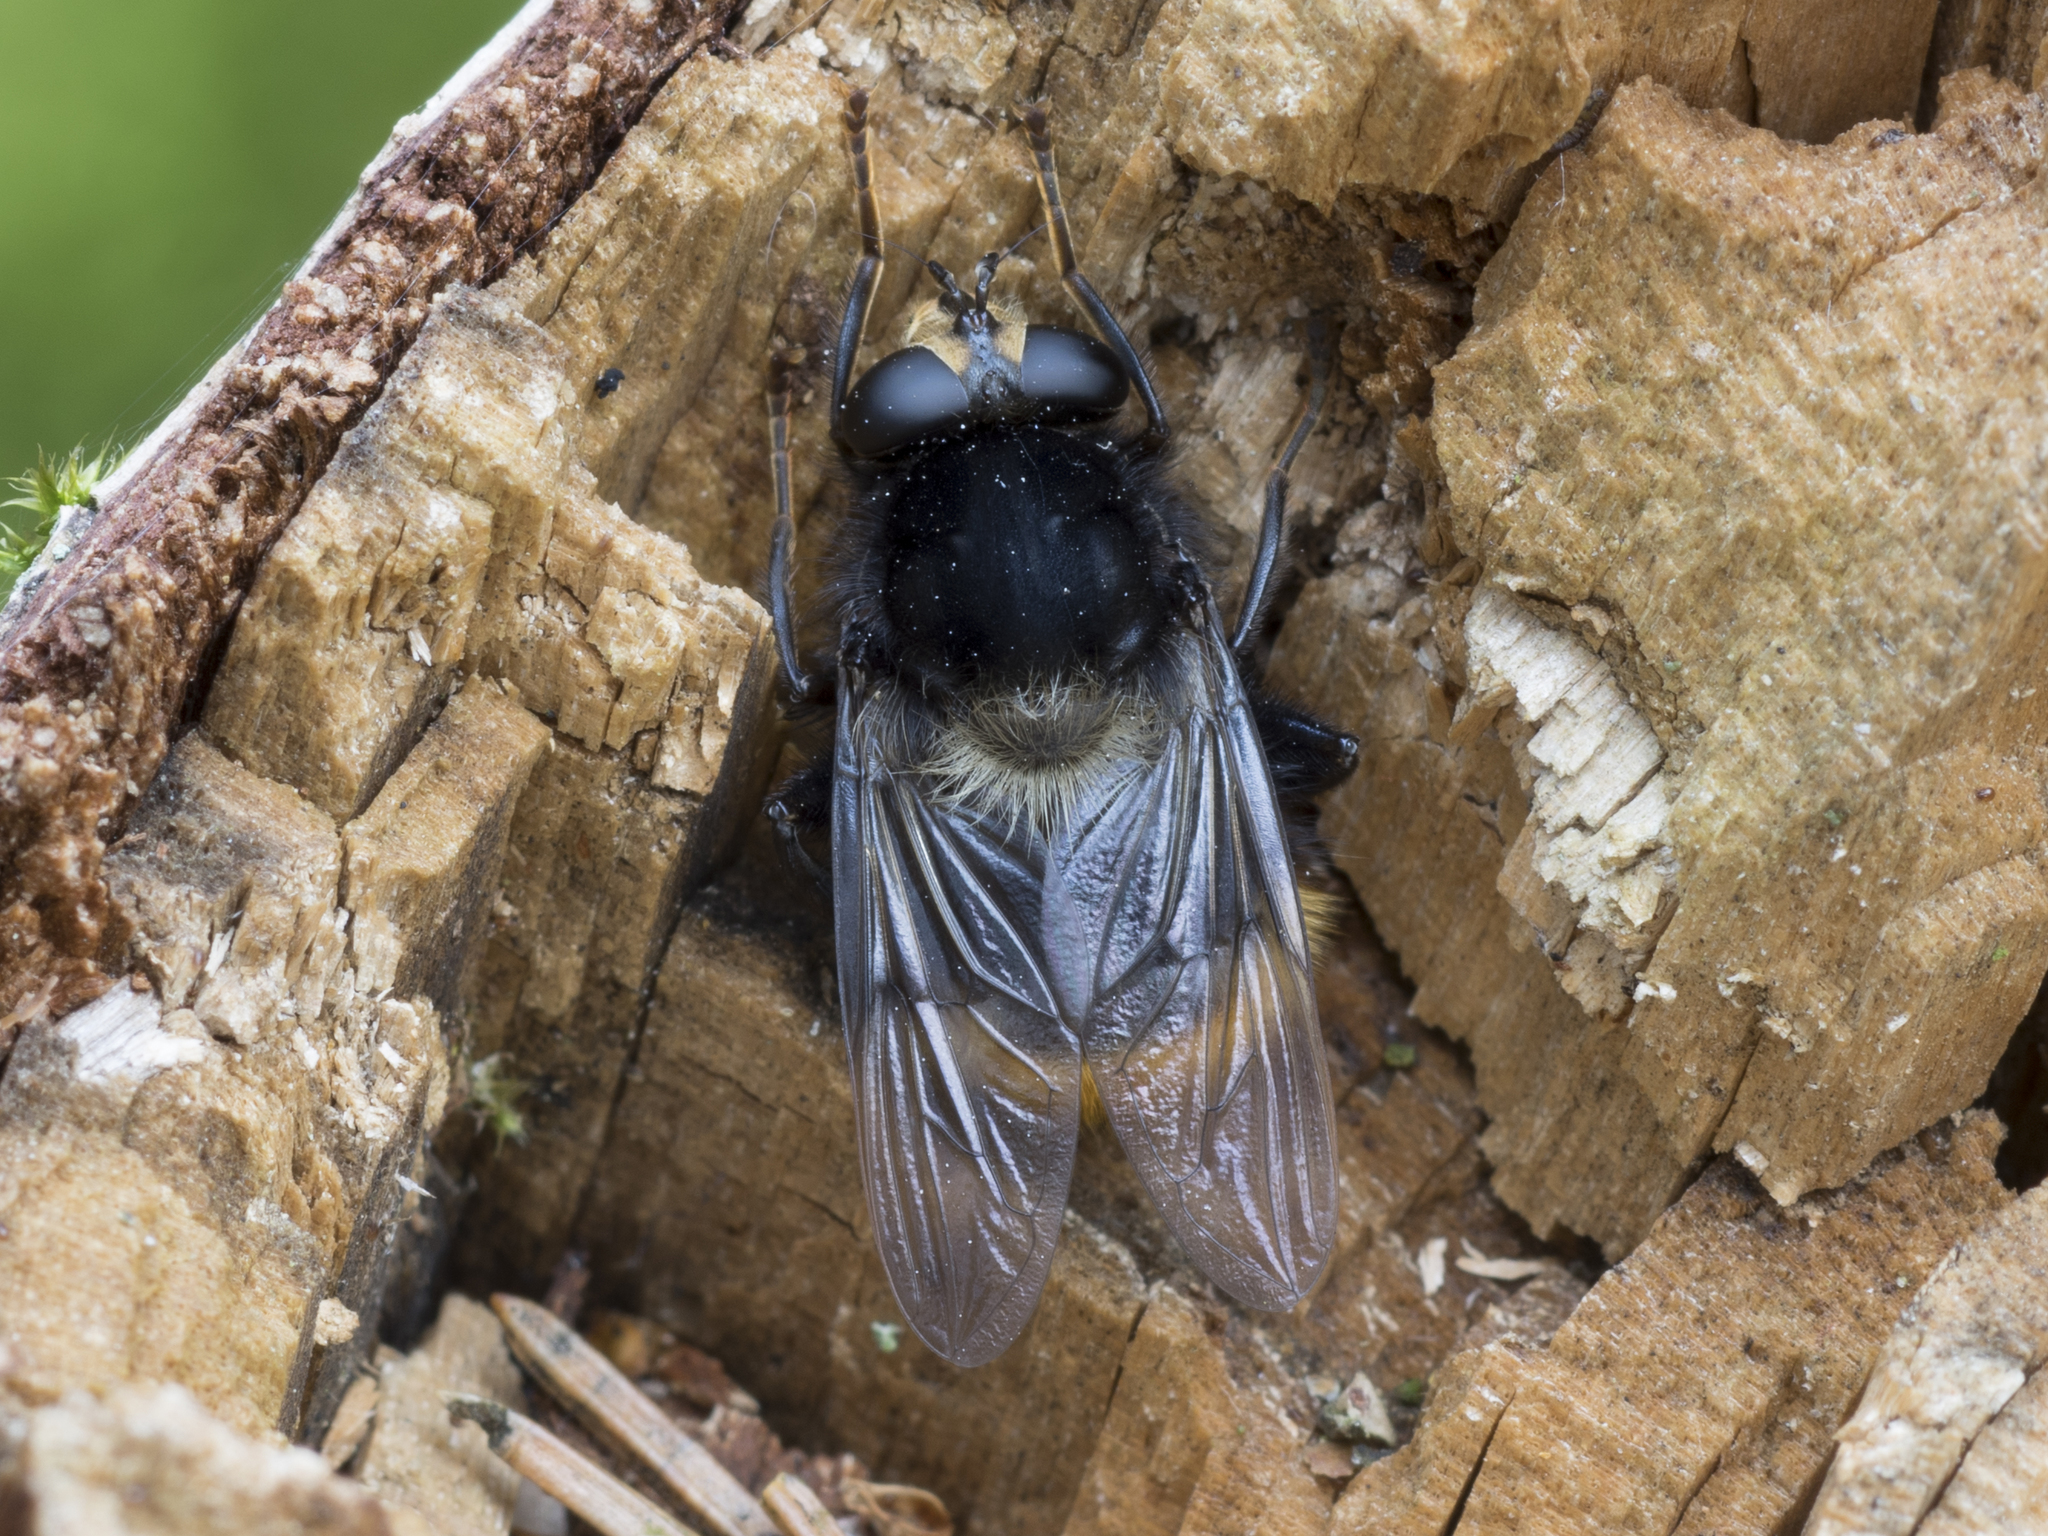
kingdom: Animalia
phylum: Arthropoda
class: Insecta
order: Diptera
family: Syrphidae
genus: Criorhina
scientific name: Criorhina ranunculi
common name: Large bear hoverfly
